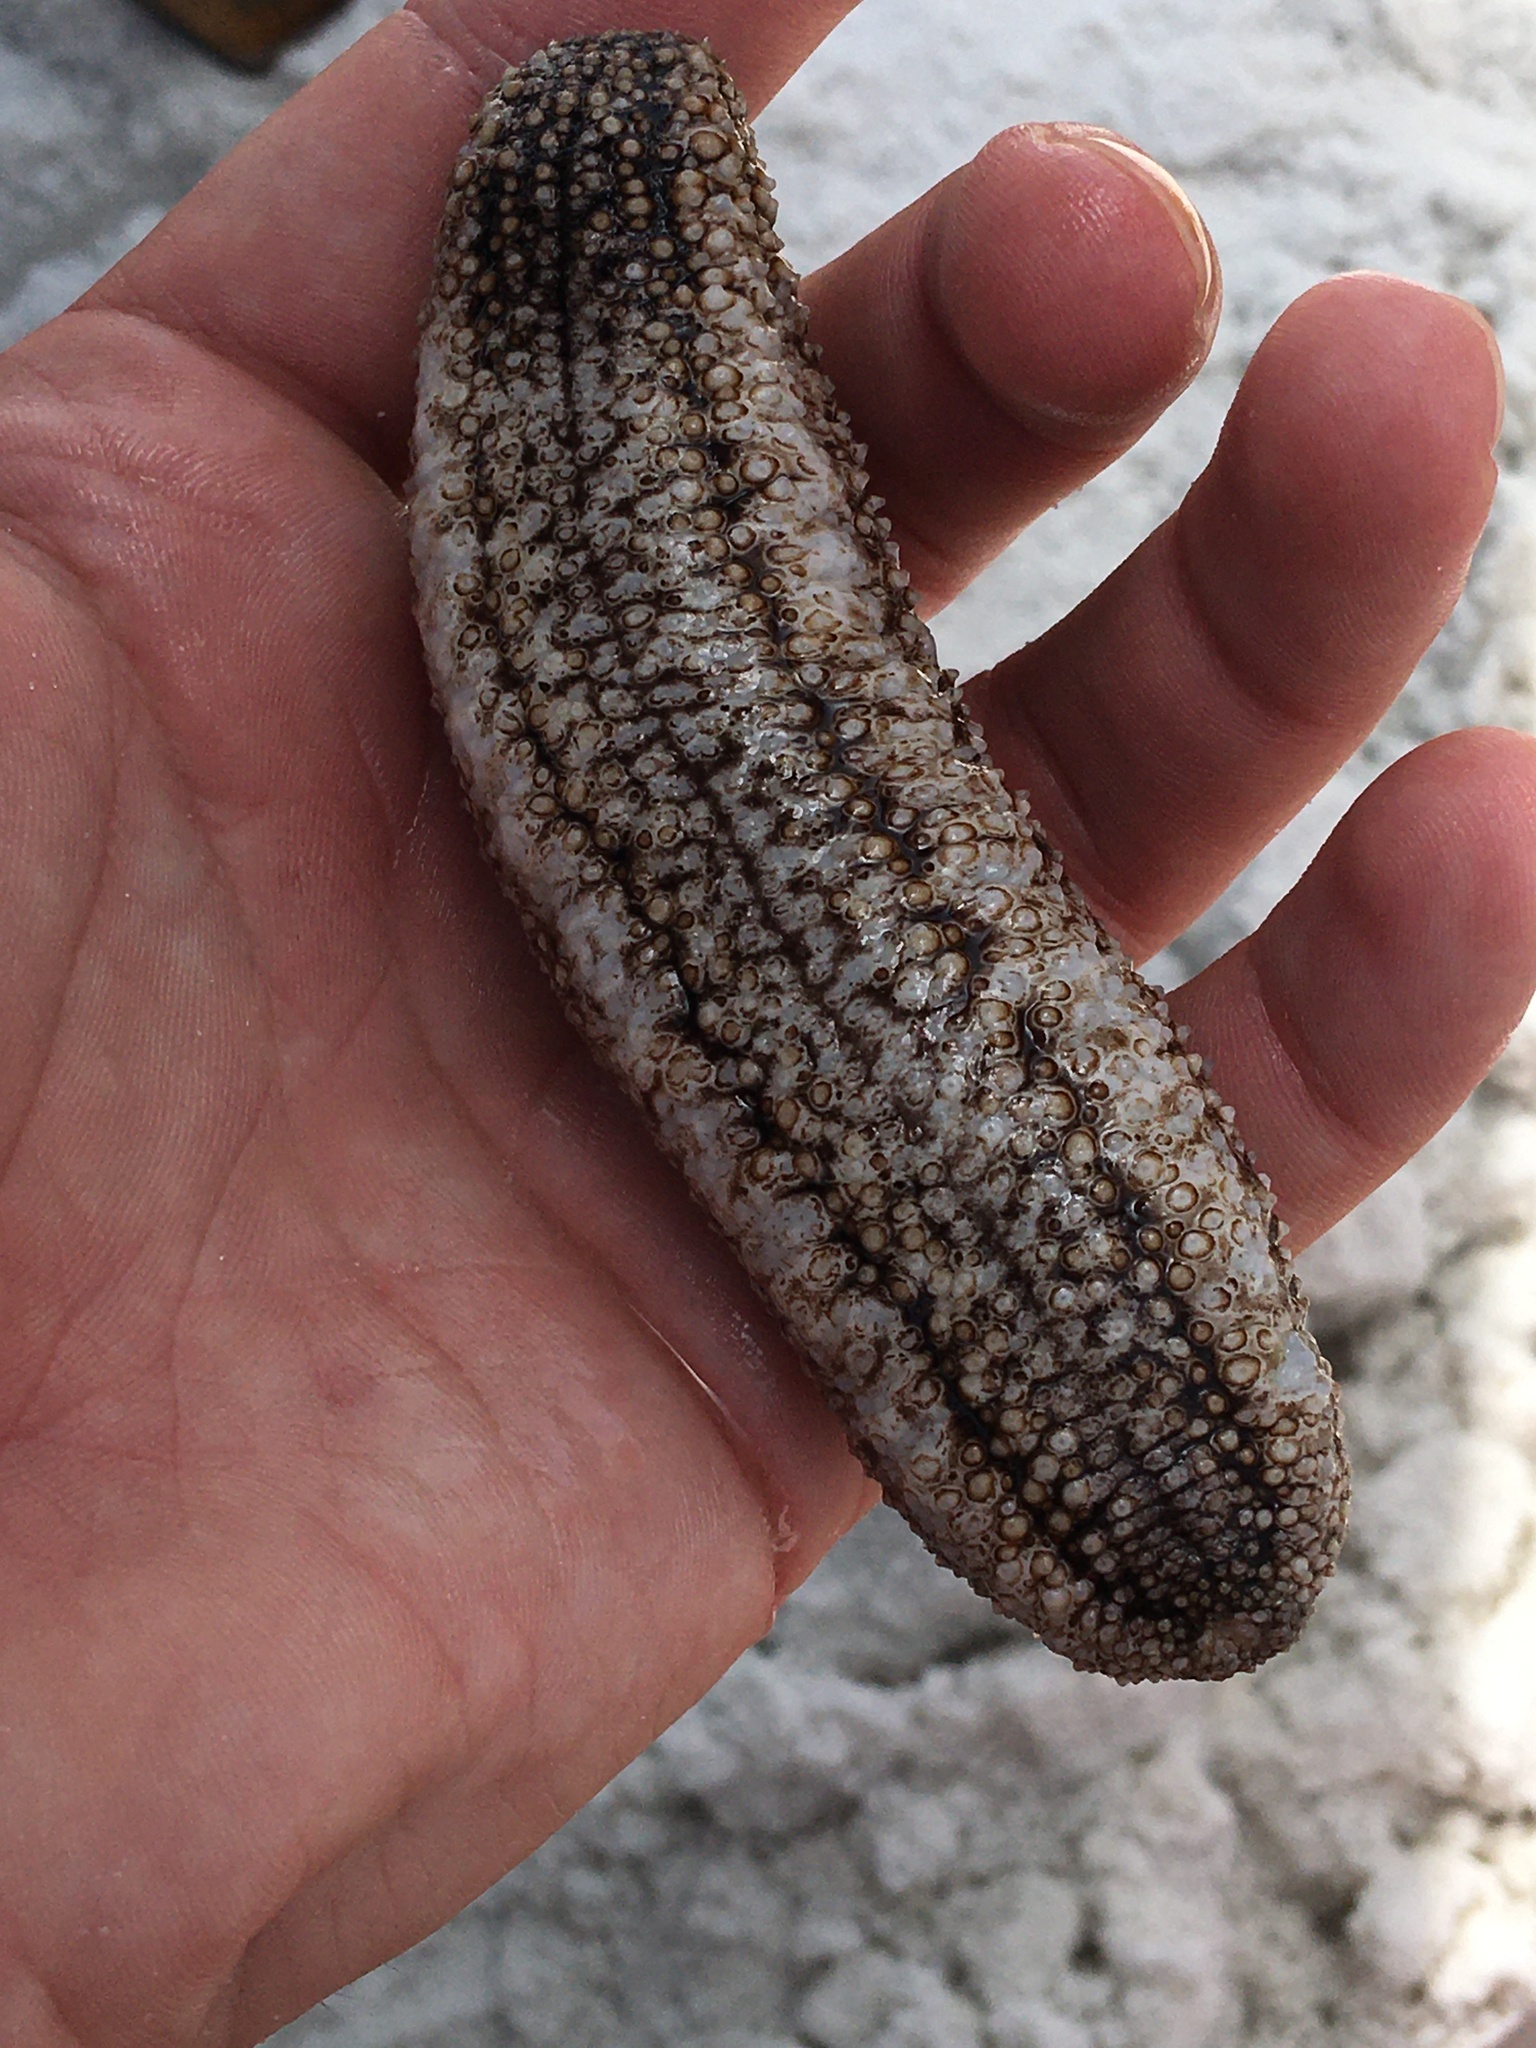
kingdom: Animalia
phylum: Echinodermata
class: Holothuroidea
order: Holothuriida
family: Holothuriidae
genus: Holothuria
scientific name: Holothuria princeps
